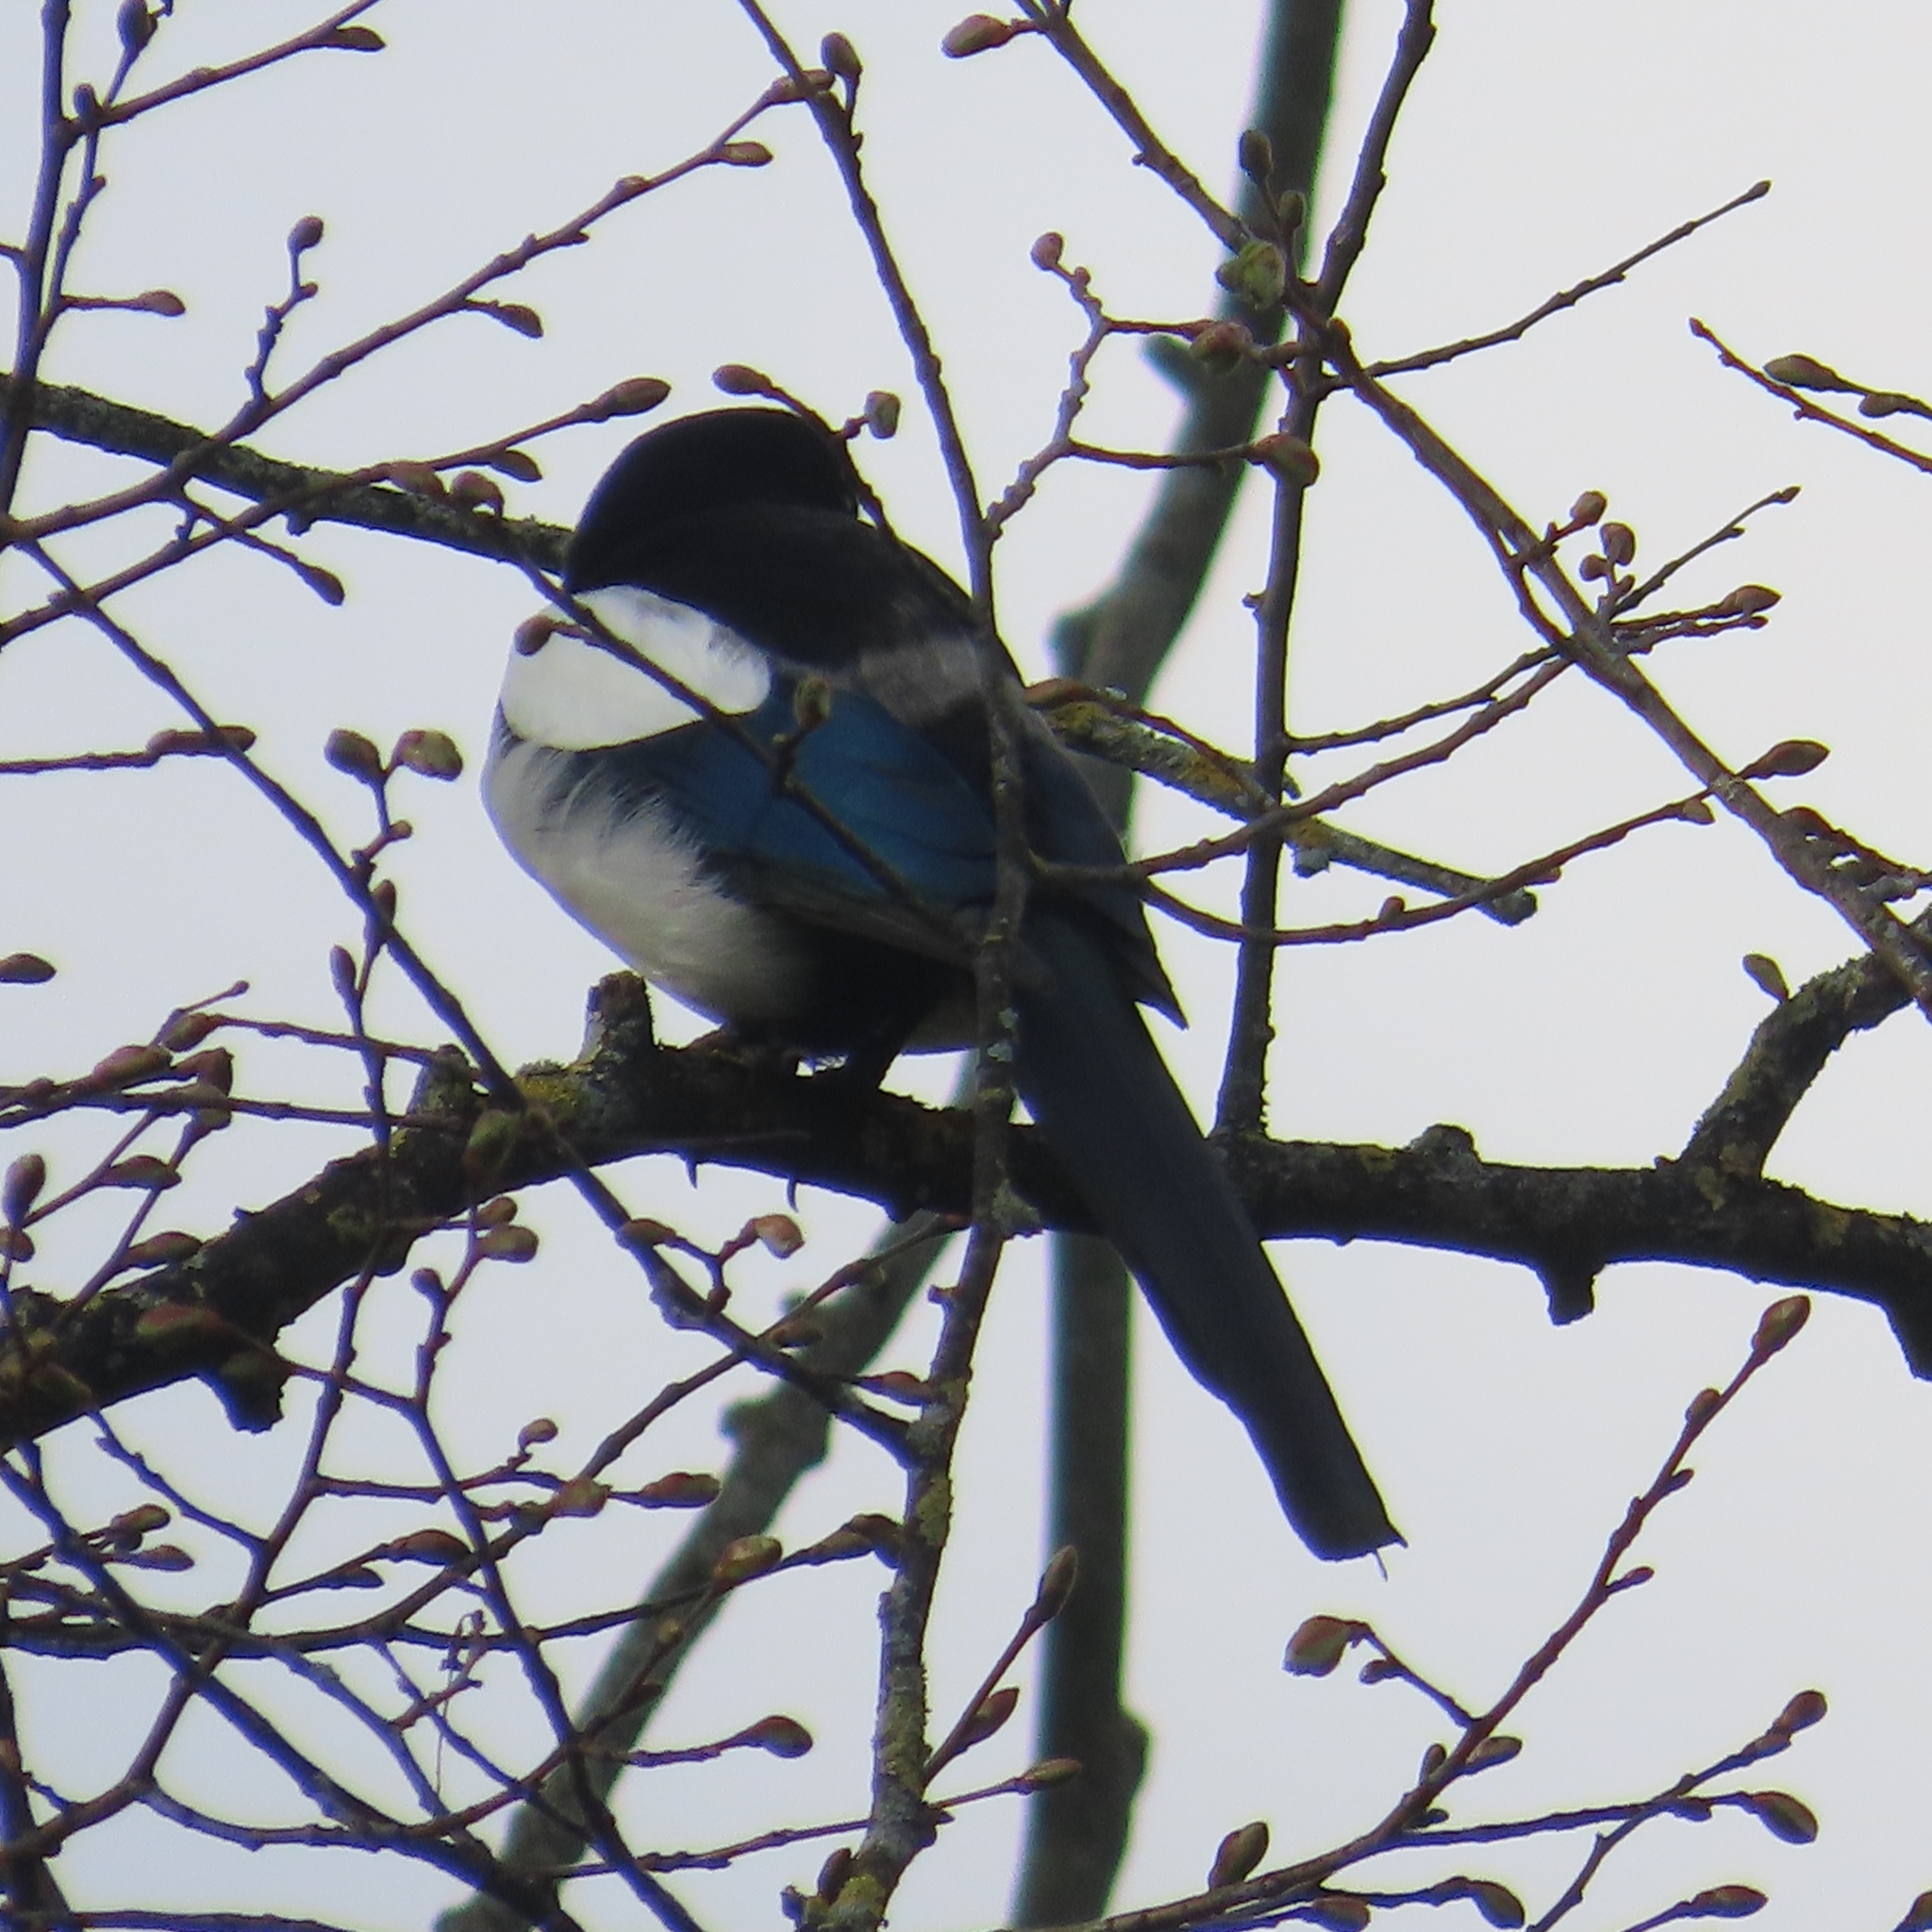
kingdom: Animalia
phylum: Chordata
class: Aves
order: Passeriformes
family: Corvidae
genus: Pica
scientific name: Pica pica
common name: Eurasian magpie
